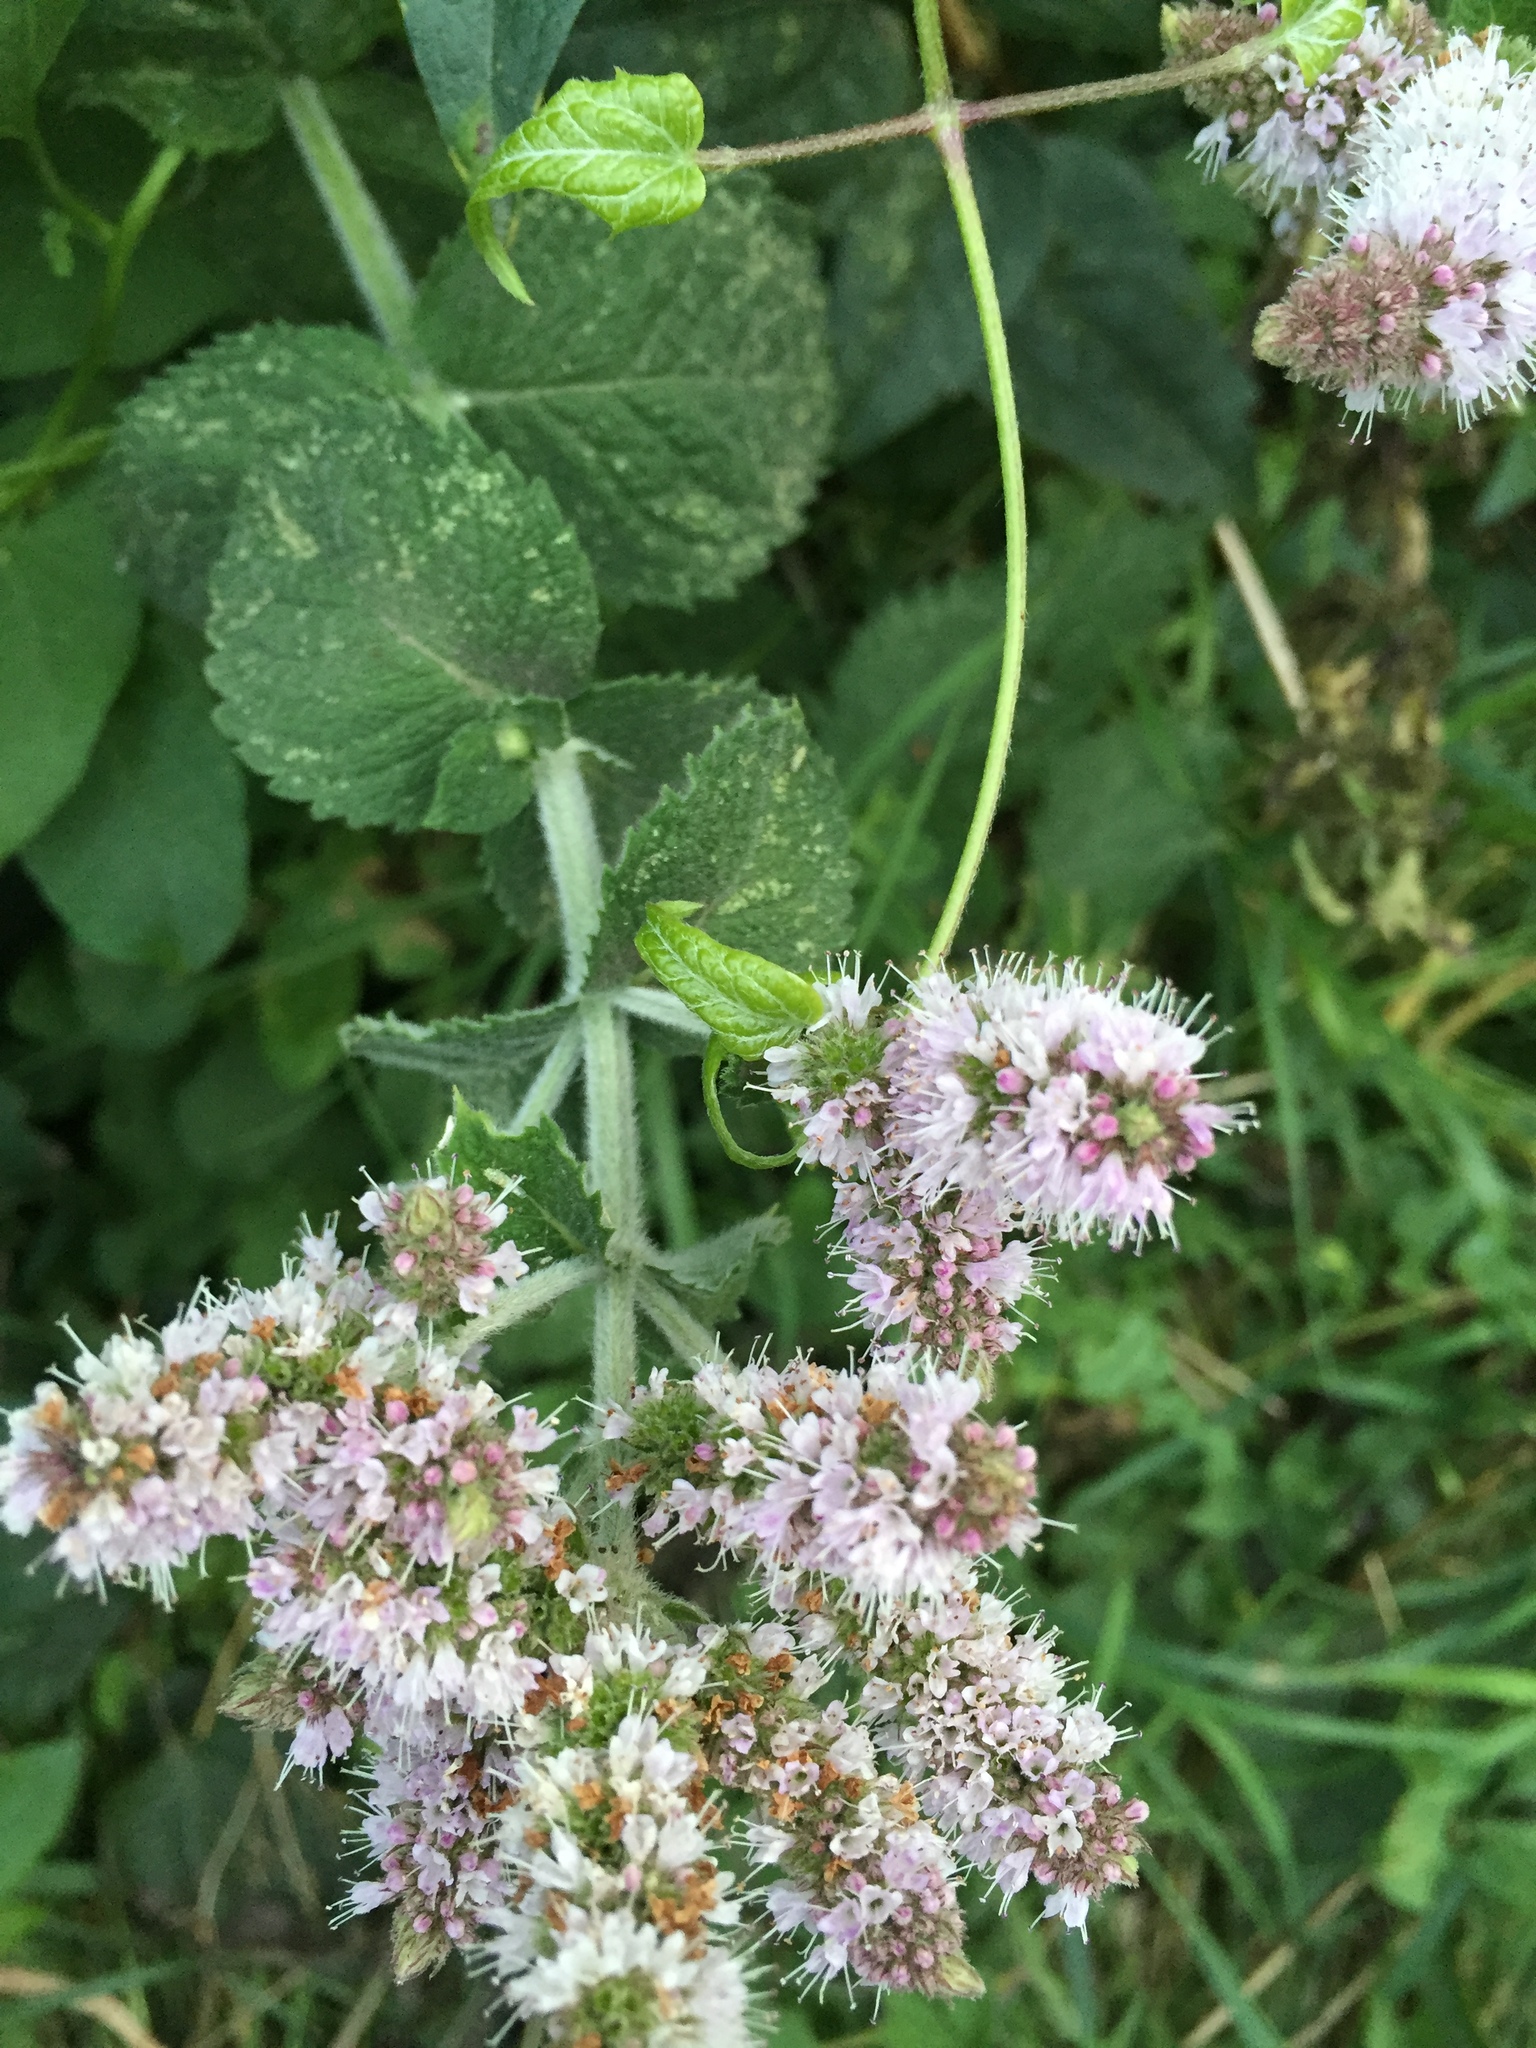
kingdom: Plantae
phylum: Tracheophyta
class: Magnoliopsida
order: Lamiales
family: Lamiaceae
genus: Mentha
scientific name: Mentha villosa
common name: Apple mint
